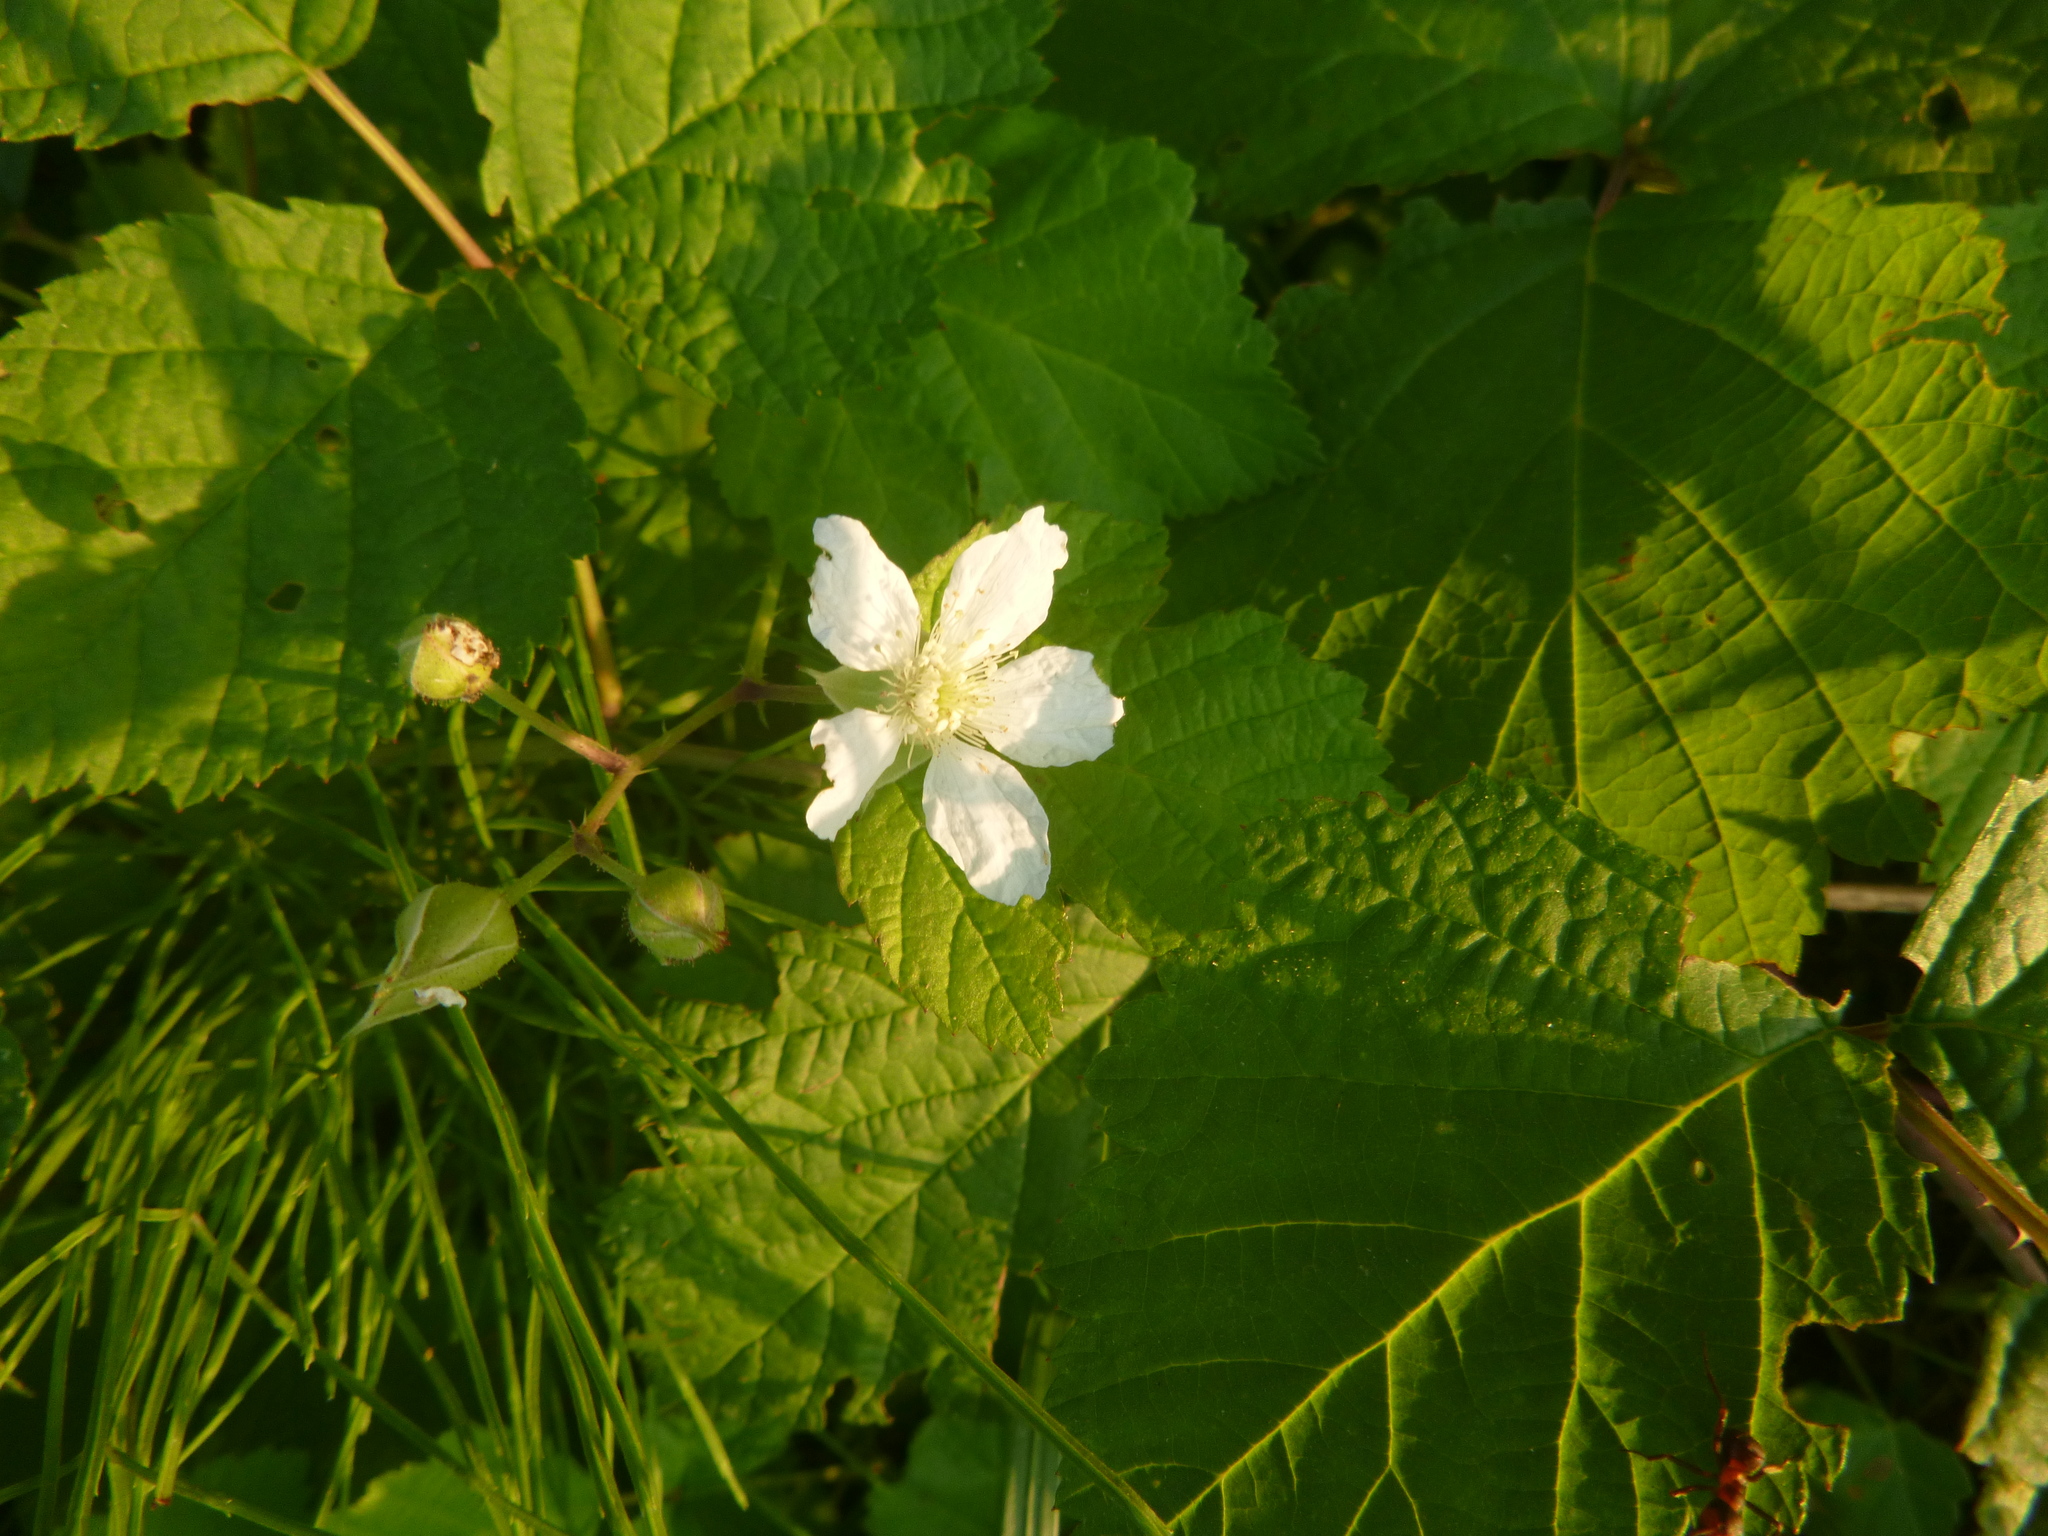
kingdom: Plantae
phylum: Tracheophyta
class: Magnoliopsida
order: Rosales
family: Rosaceae
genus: Rubus
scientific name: Rubus caesius
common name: Dewberry
